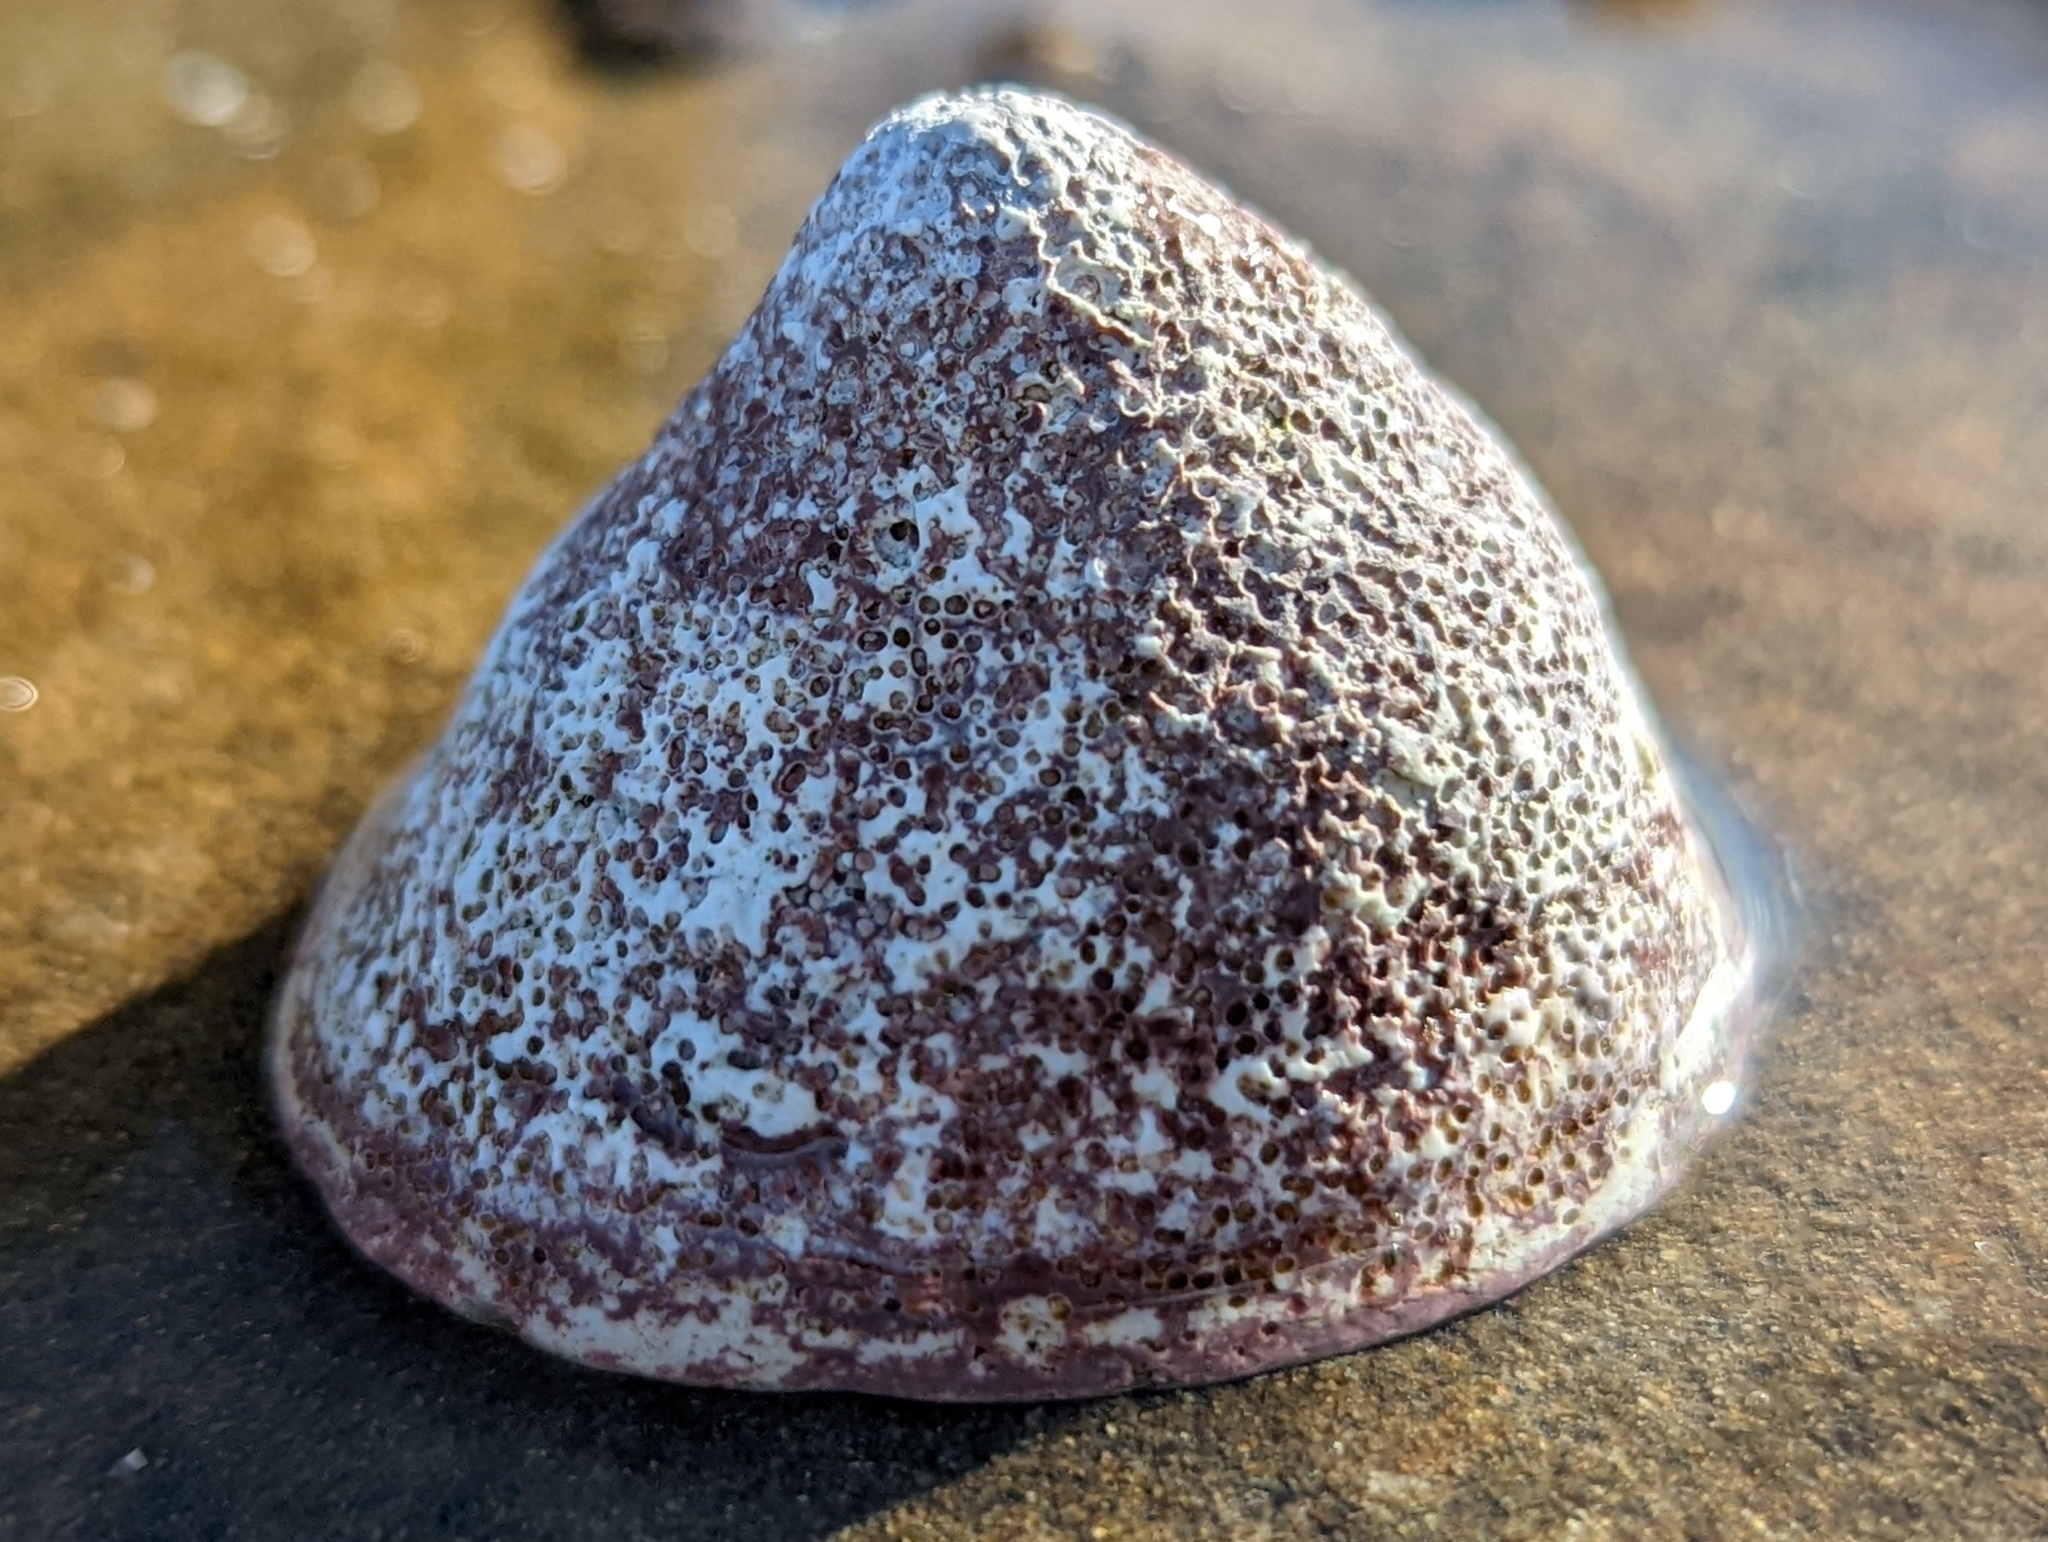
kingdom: Animalia
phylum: Mollusca
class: Gastropoda
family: Acmaeidae
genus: Acmaea
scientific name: Acmaea mitra
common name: Pacific white cap limpet
